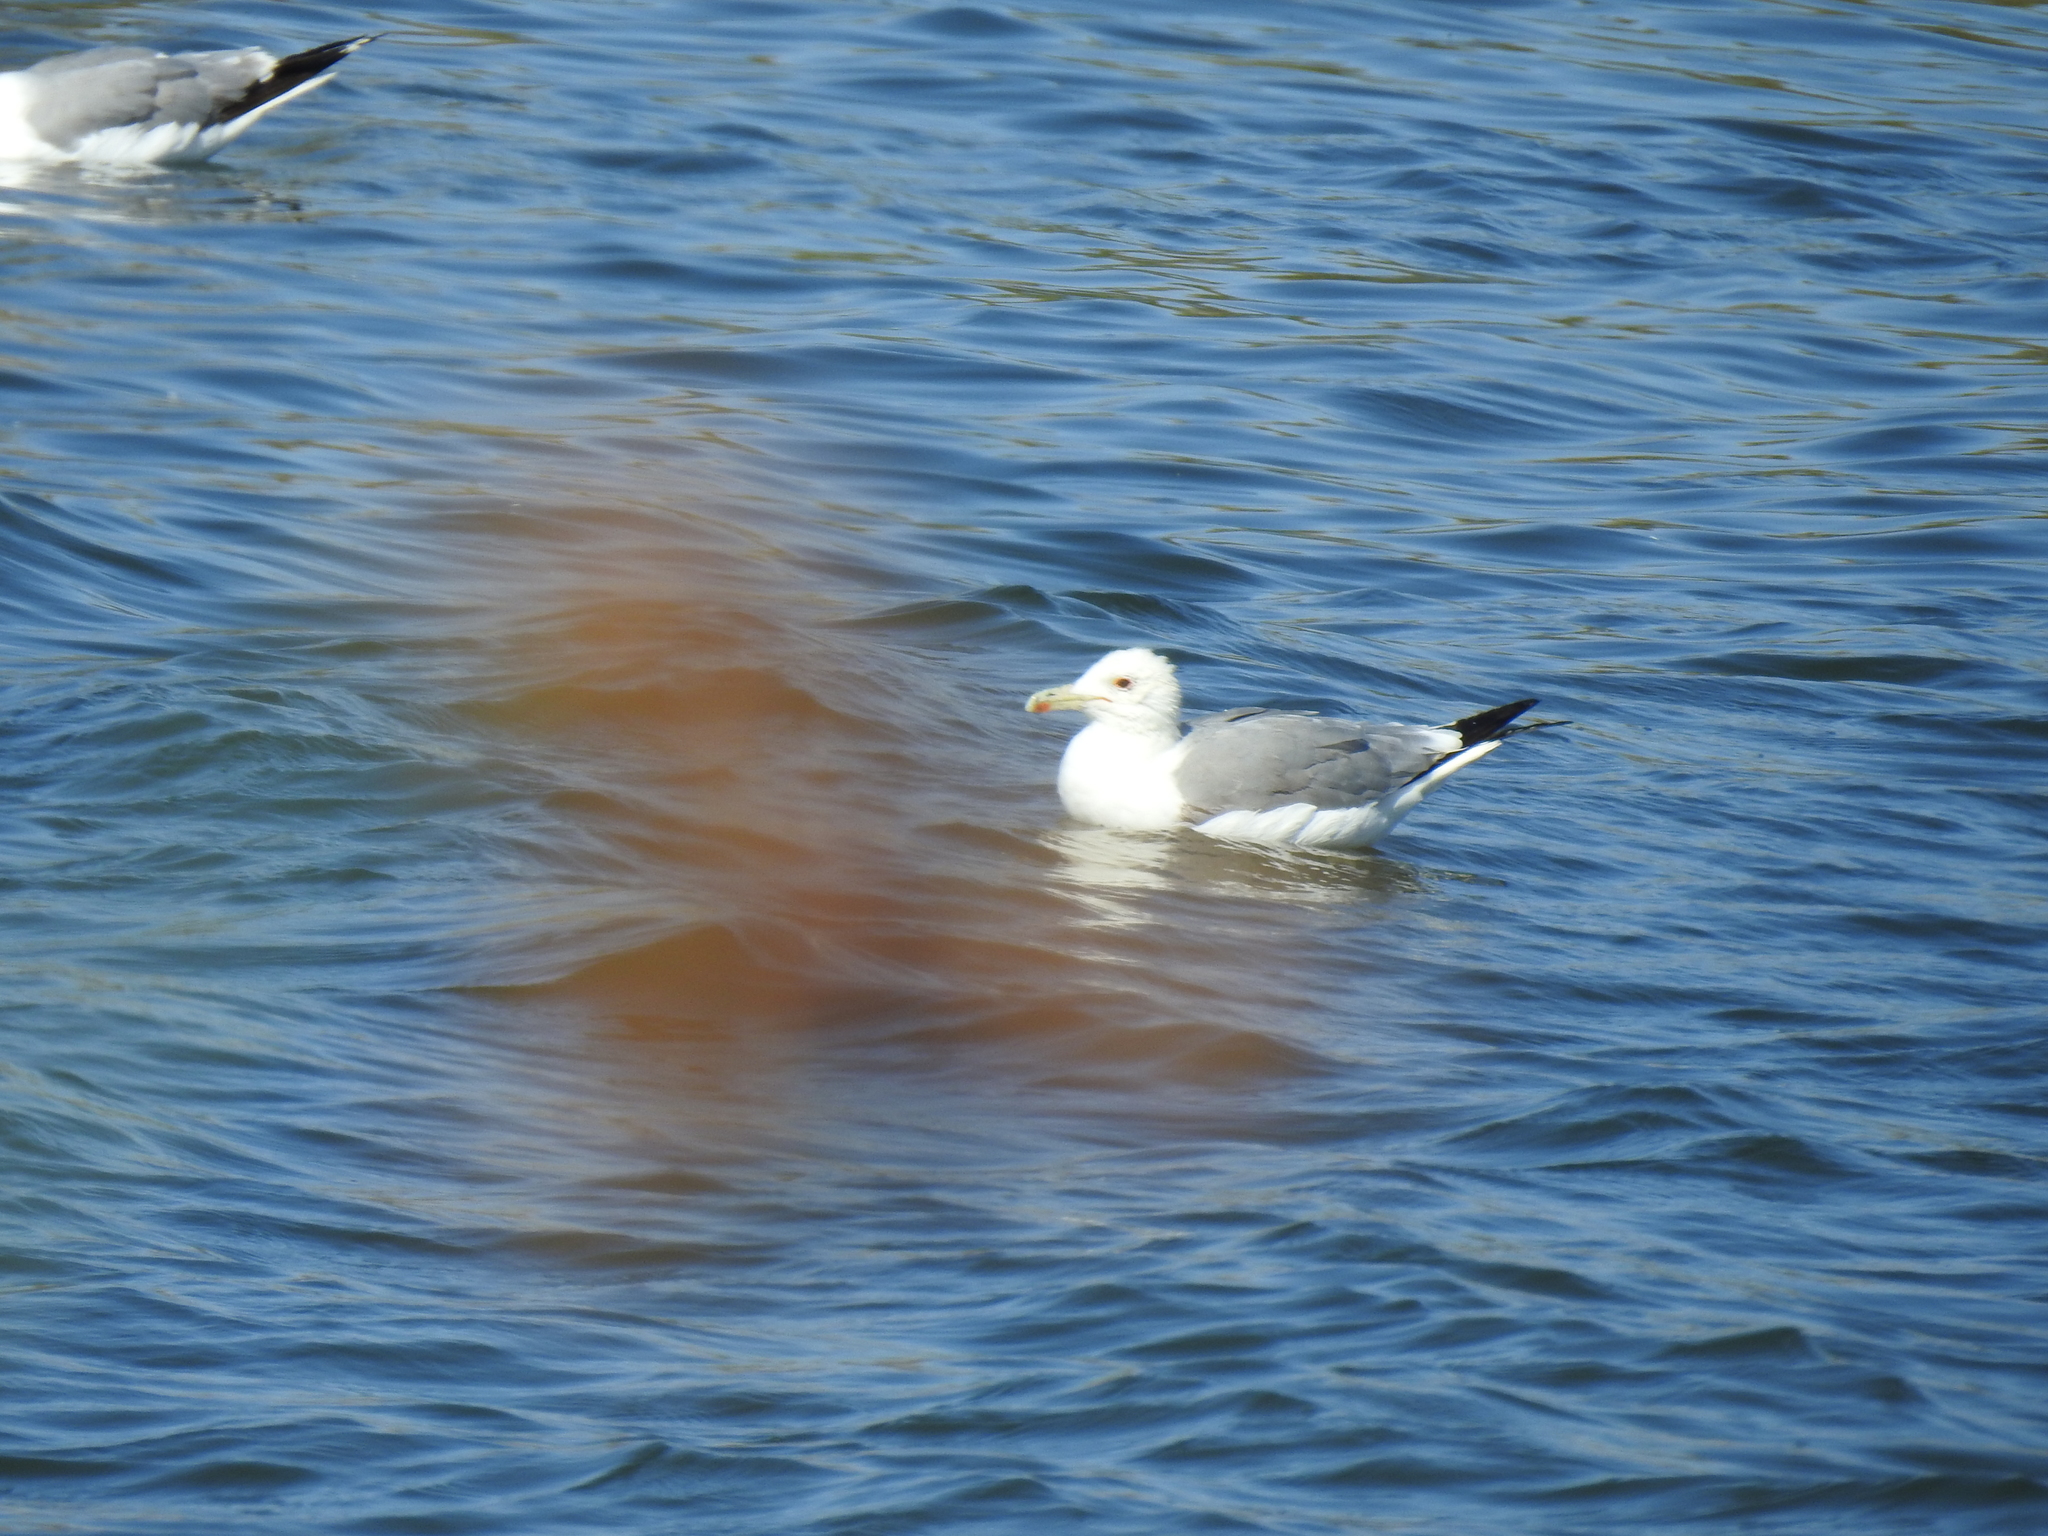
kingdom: Animalia
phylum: Chordata
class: Aves
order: Charadriiformes
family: Laridae
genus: Larus
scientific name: Larus californicus
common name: California gull
